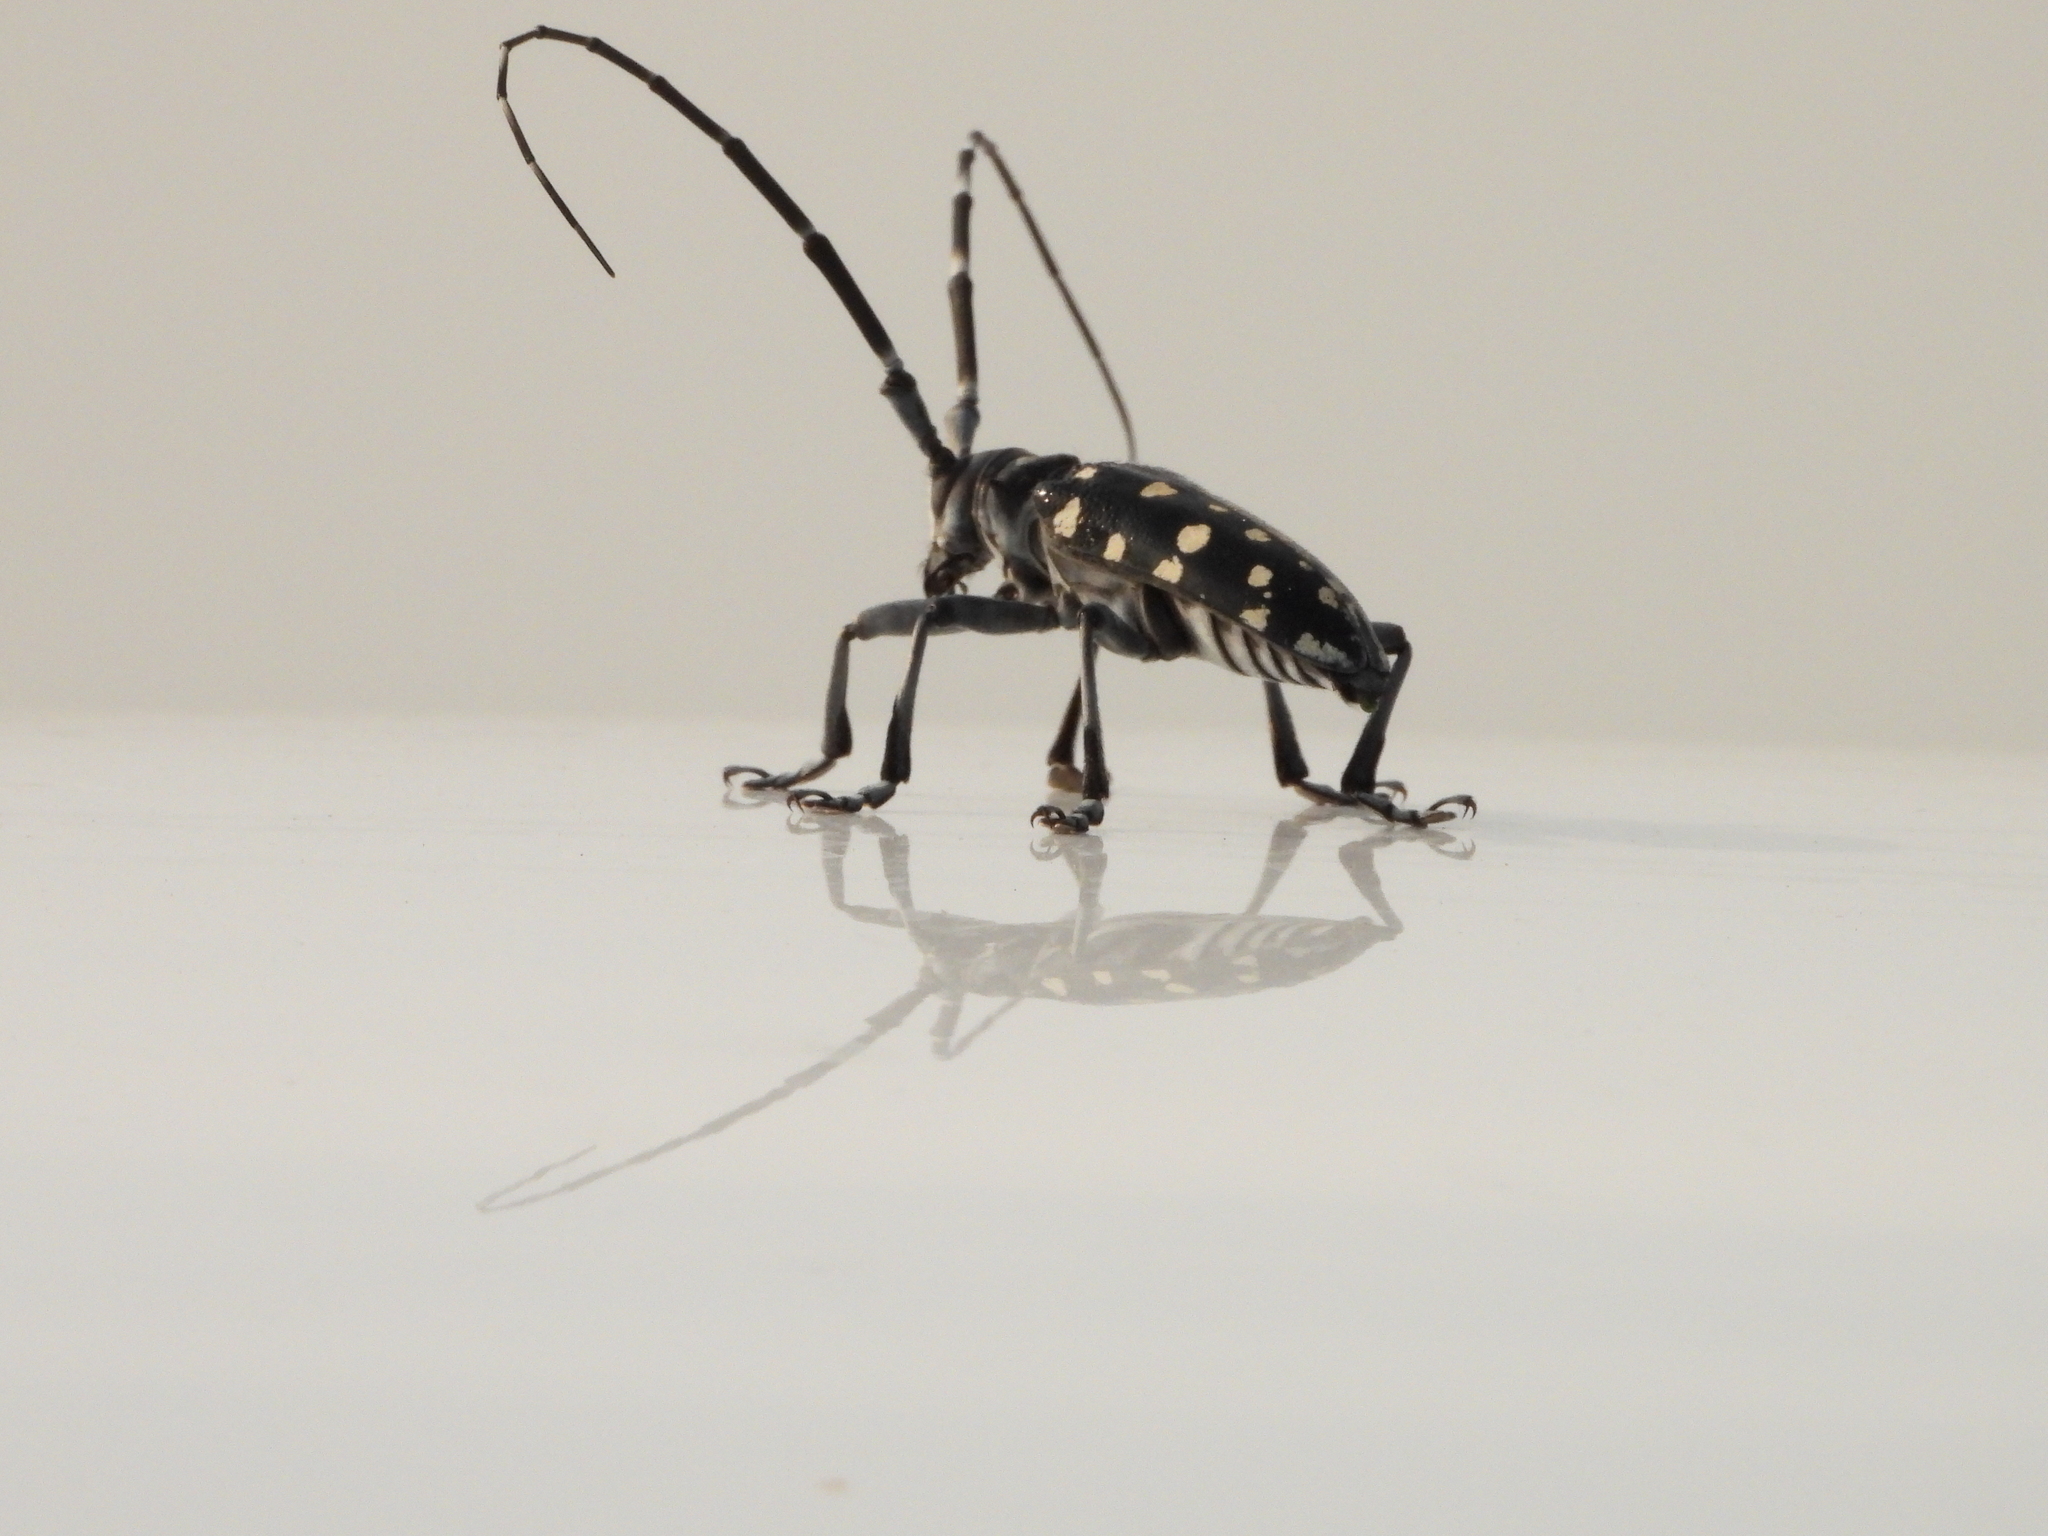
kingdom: Animalia
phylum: Arthropoda
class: Insecta
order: Coleoptera
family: Cerambycidae
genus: Anoplophora
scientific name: Anoplophora macularia
